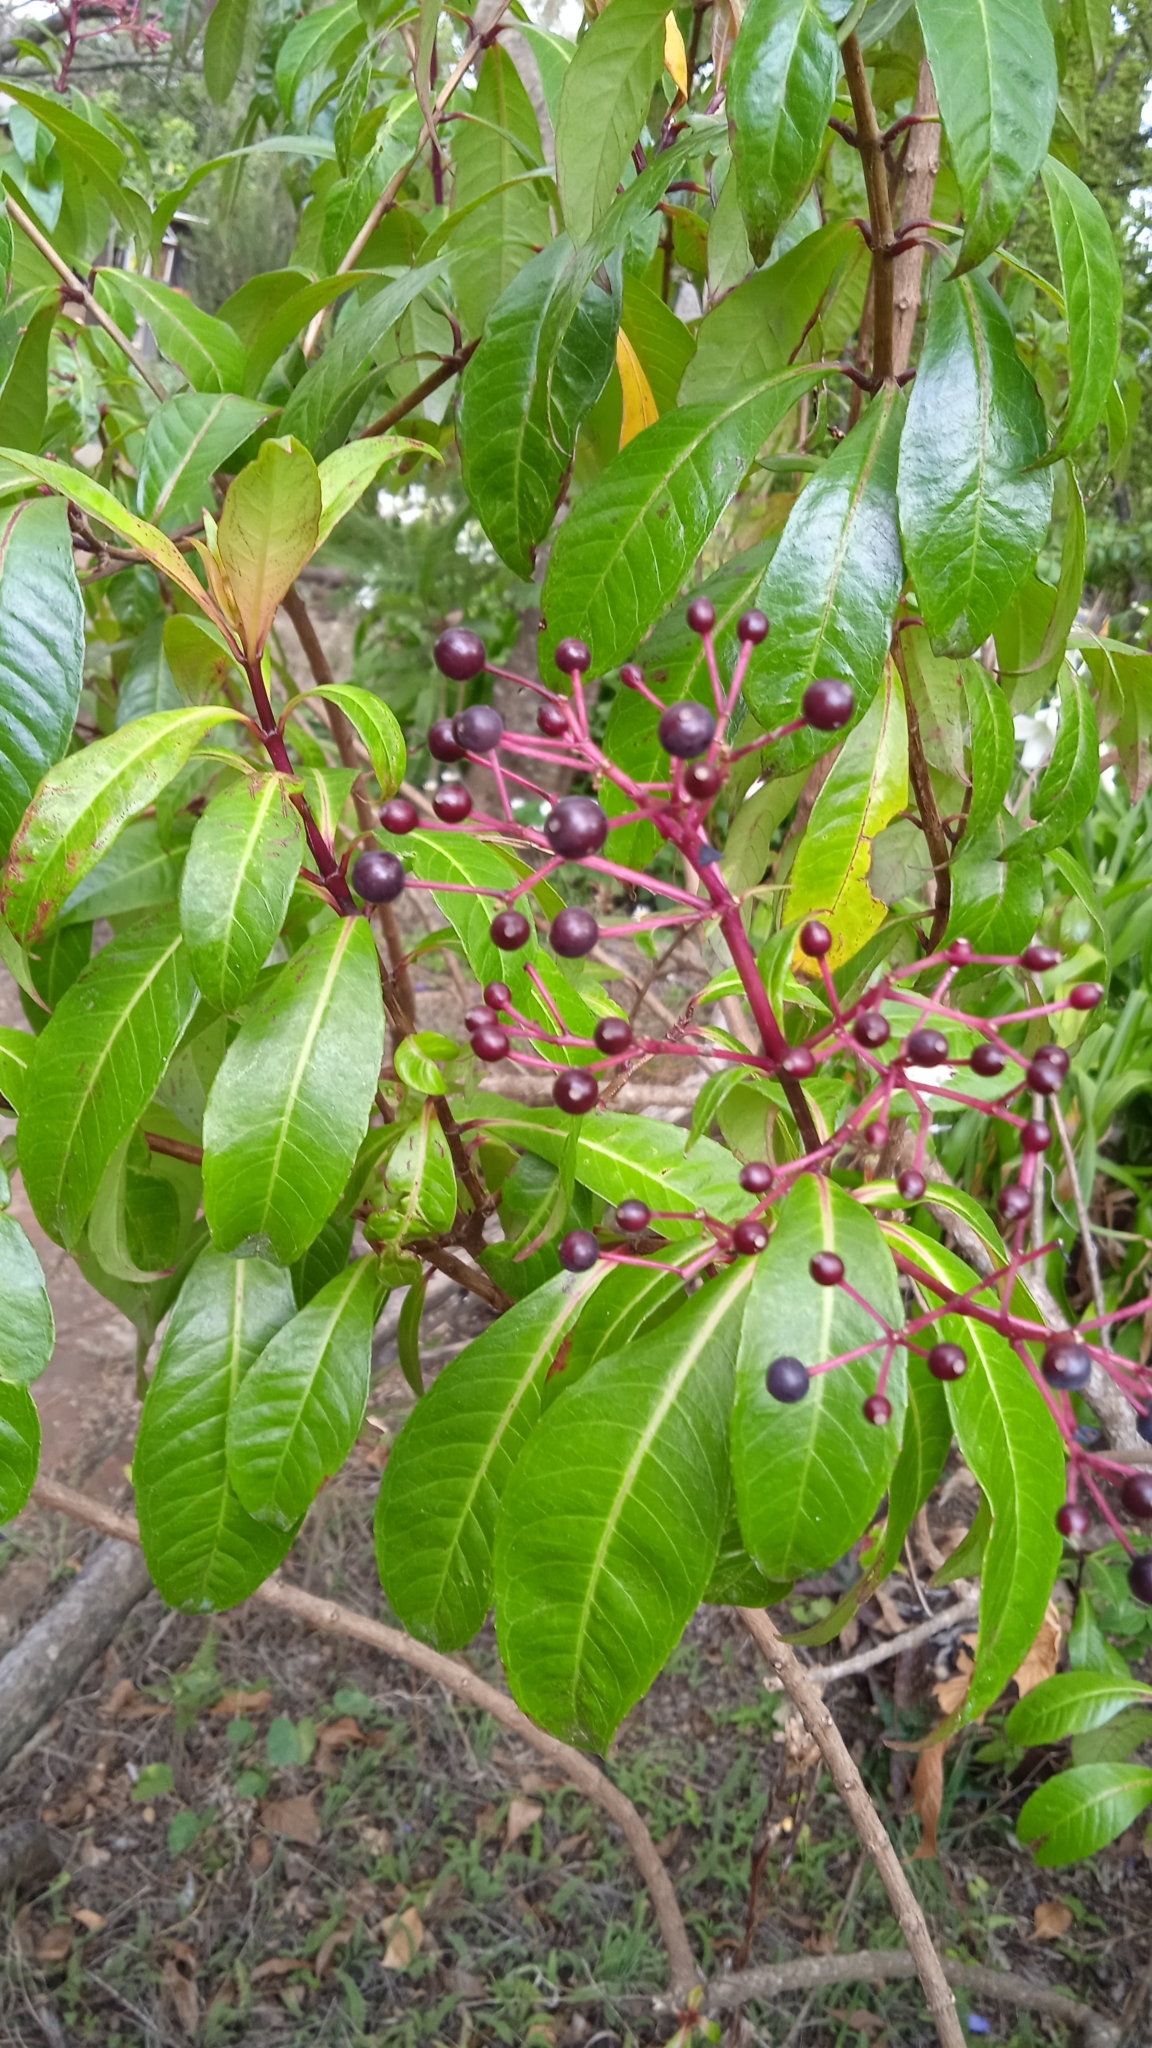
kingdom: Plantae
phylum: Tracheophyta
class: Magnoliopsida
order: Myrtales
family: Onagraceae
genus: Fuchsia
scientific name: Fuchsia paniculata
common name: Shrubby fuchsia
